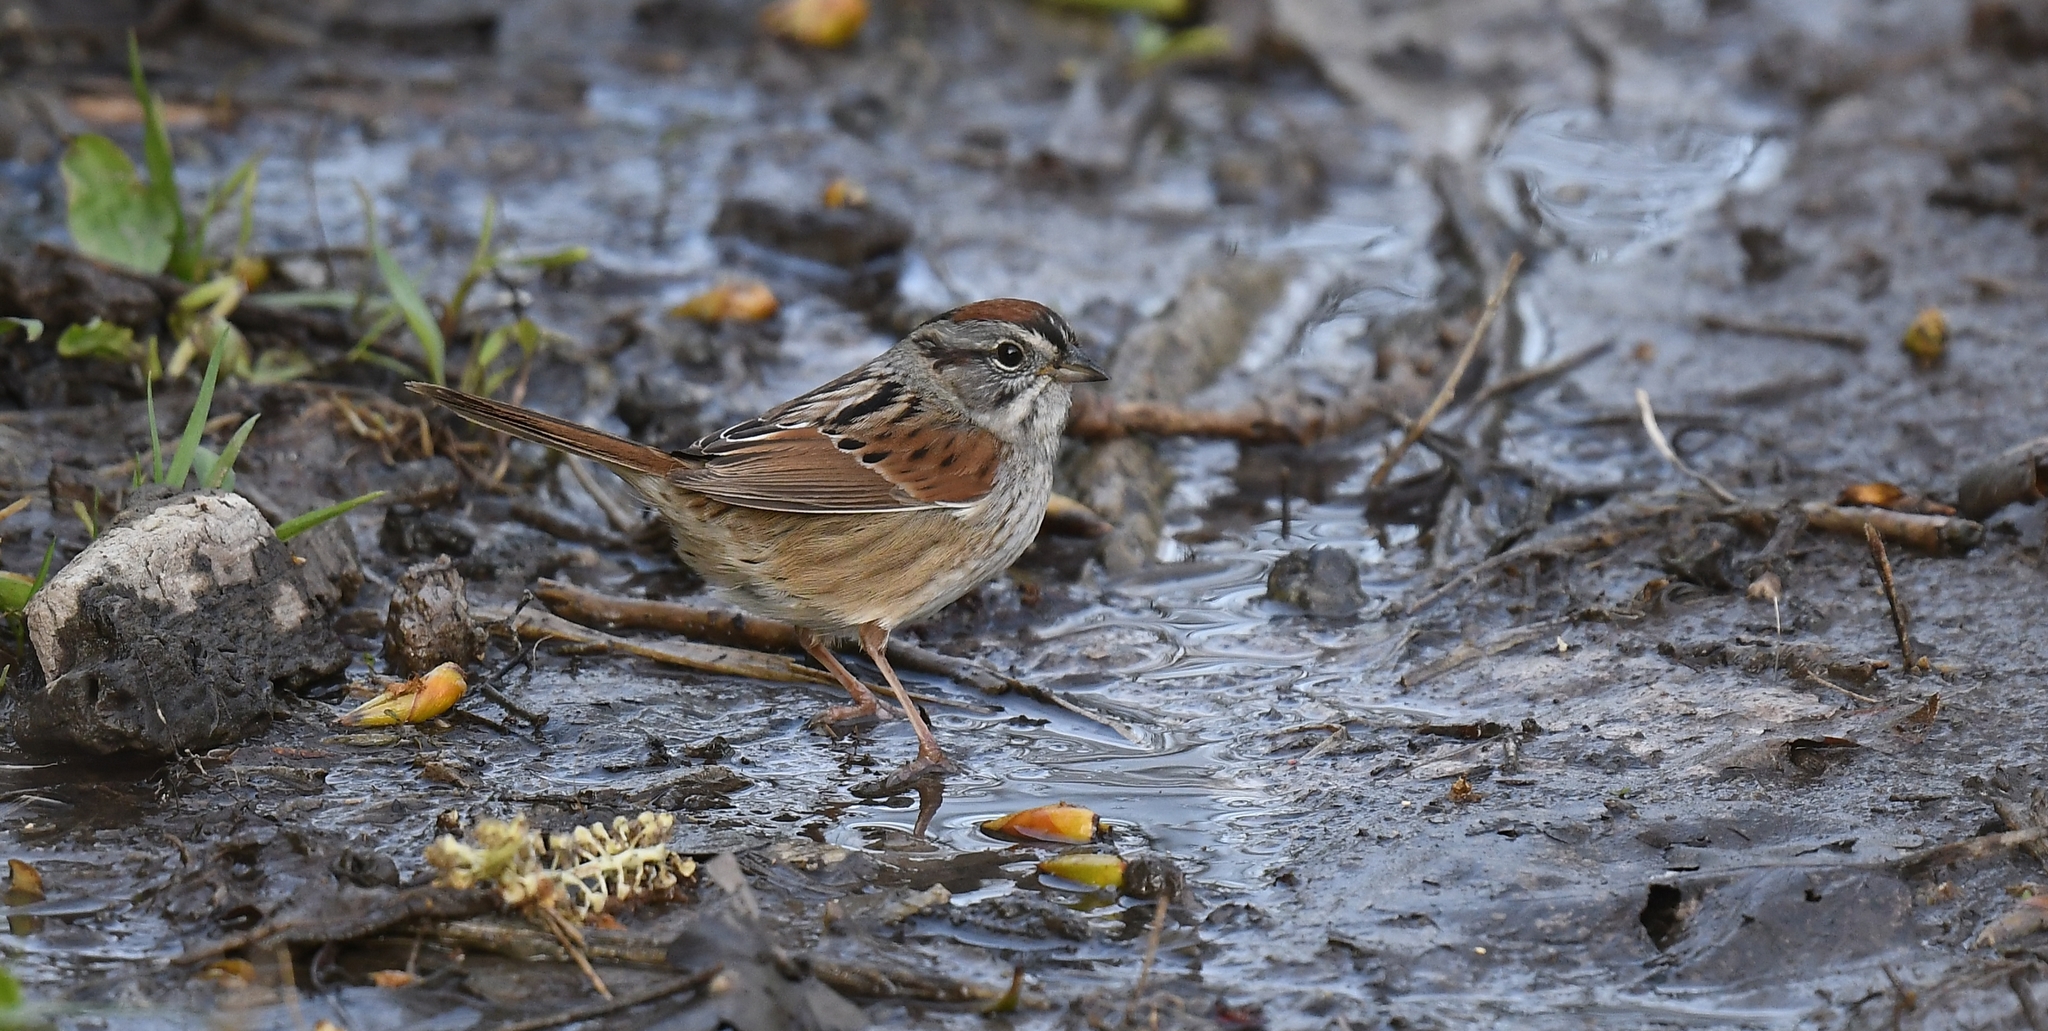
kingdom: Animalia
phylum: Chordata
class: Aves
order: Passeriformes
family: Passerellidae
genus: Melospiza
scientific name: Melospiza georgiana
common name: Swamp sparrow
